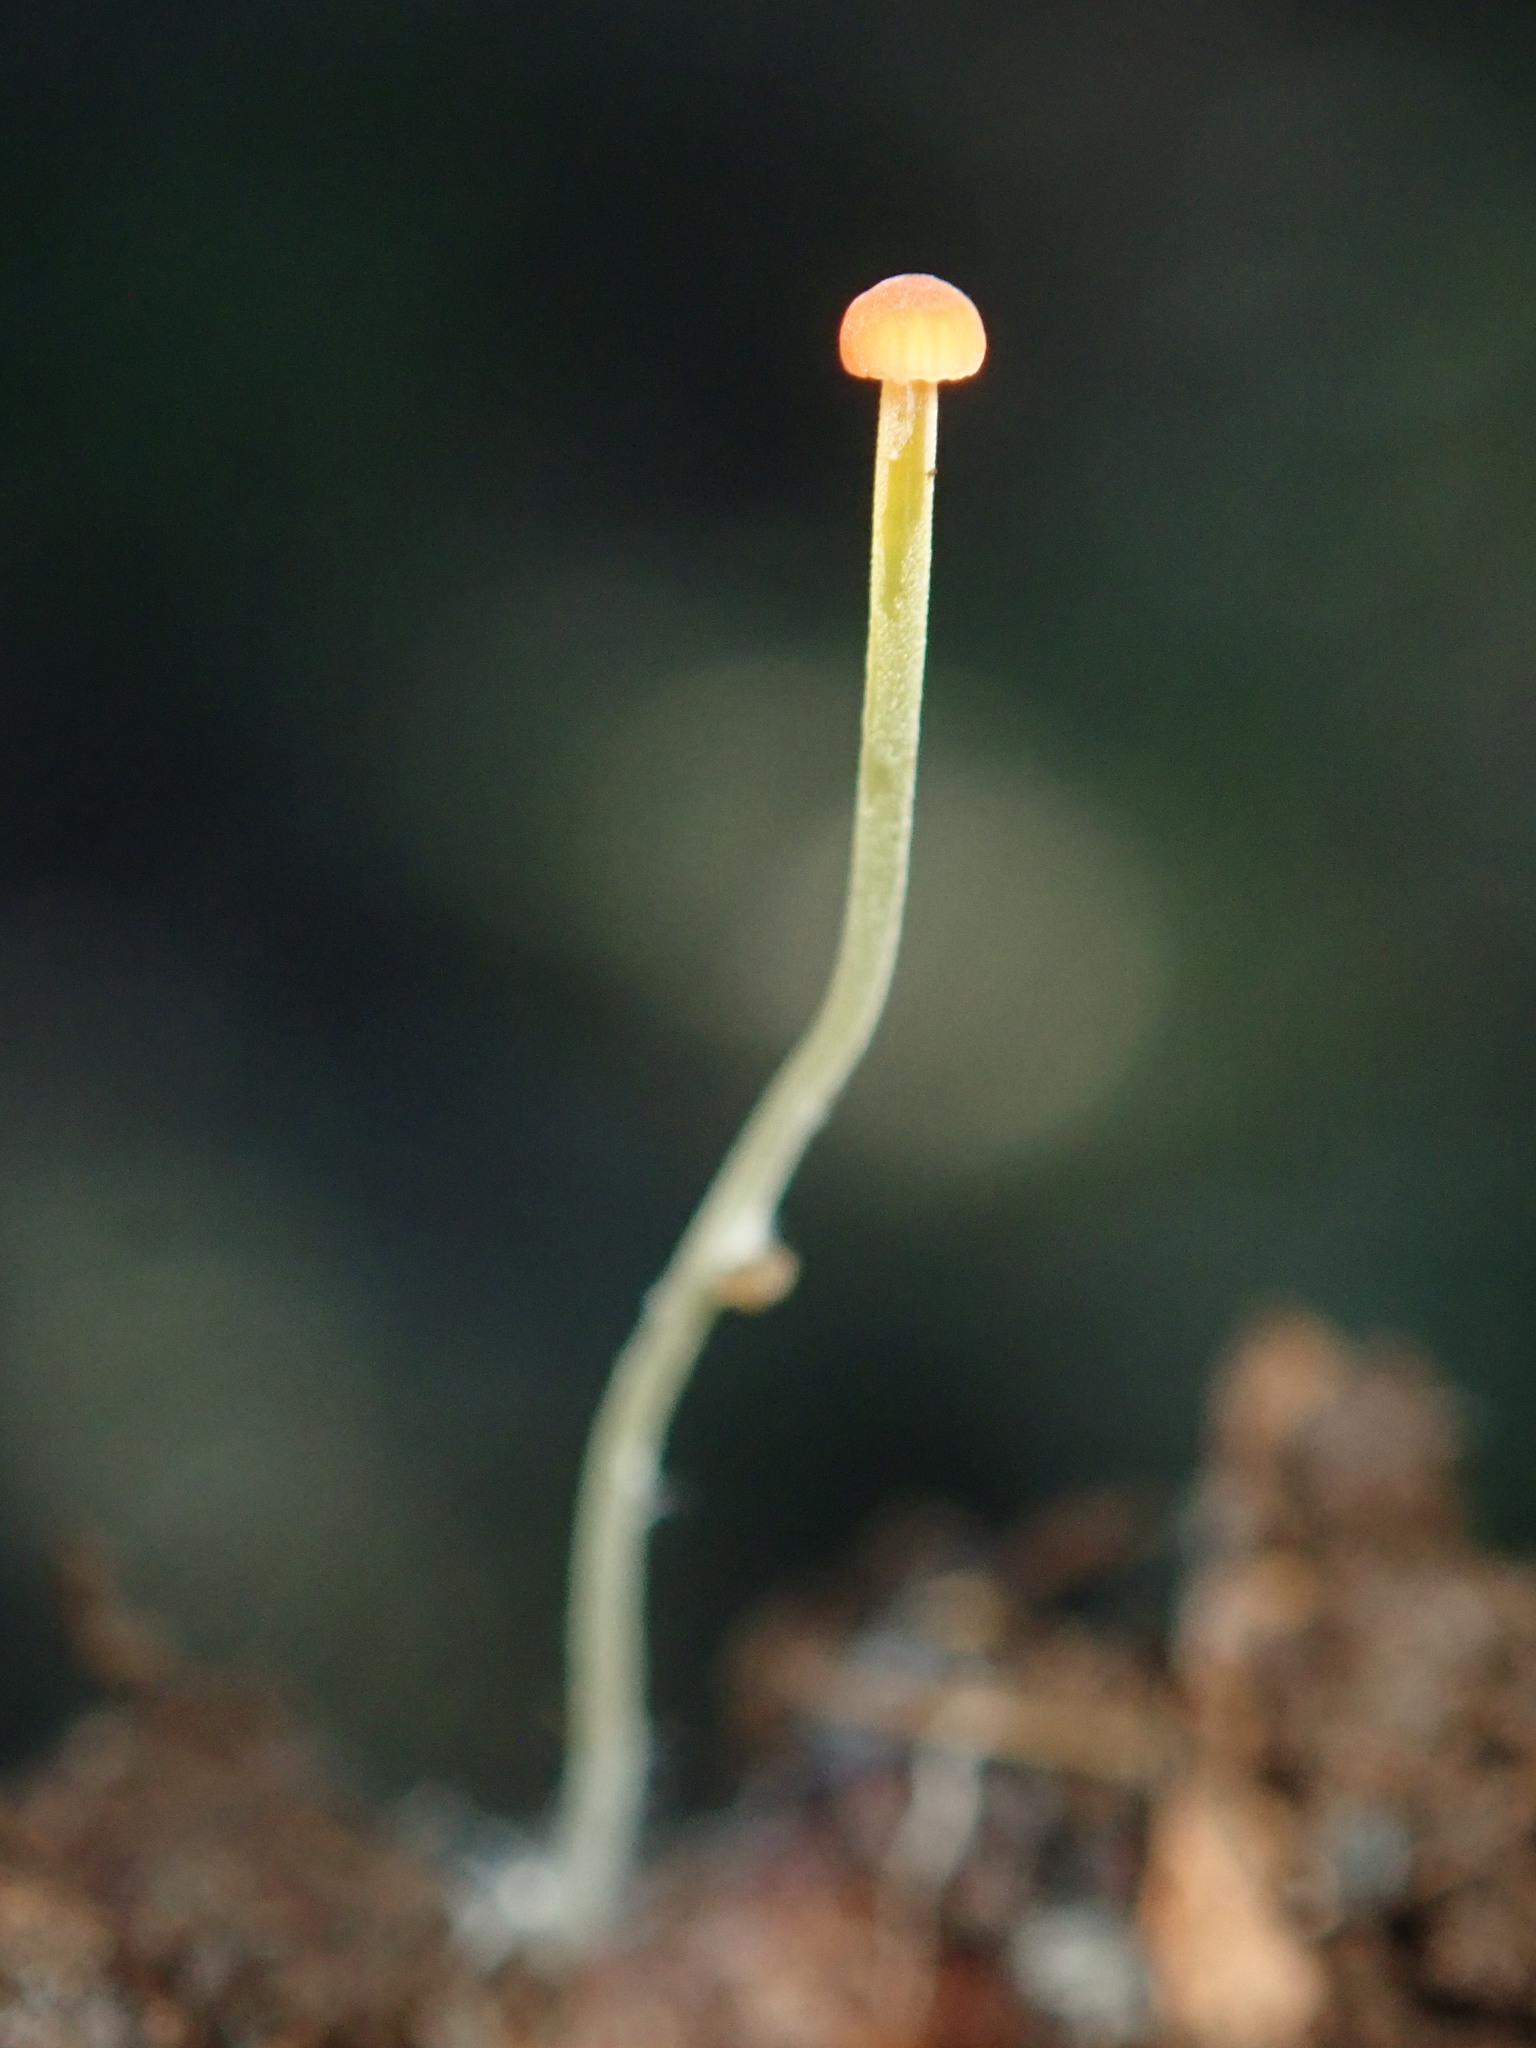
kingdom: Fungi
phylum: Basidiomycota
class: Agaricomycetes
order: Agaricales
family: Mycenaceae
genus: Mycena
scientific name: Mycena acicula
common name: Orange bonnet
